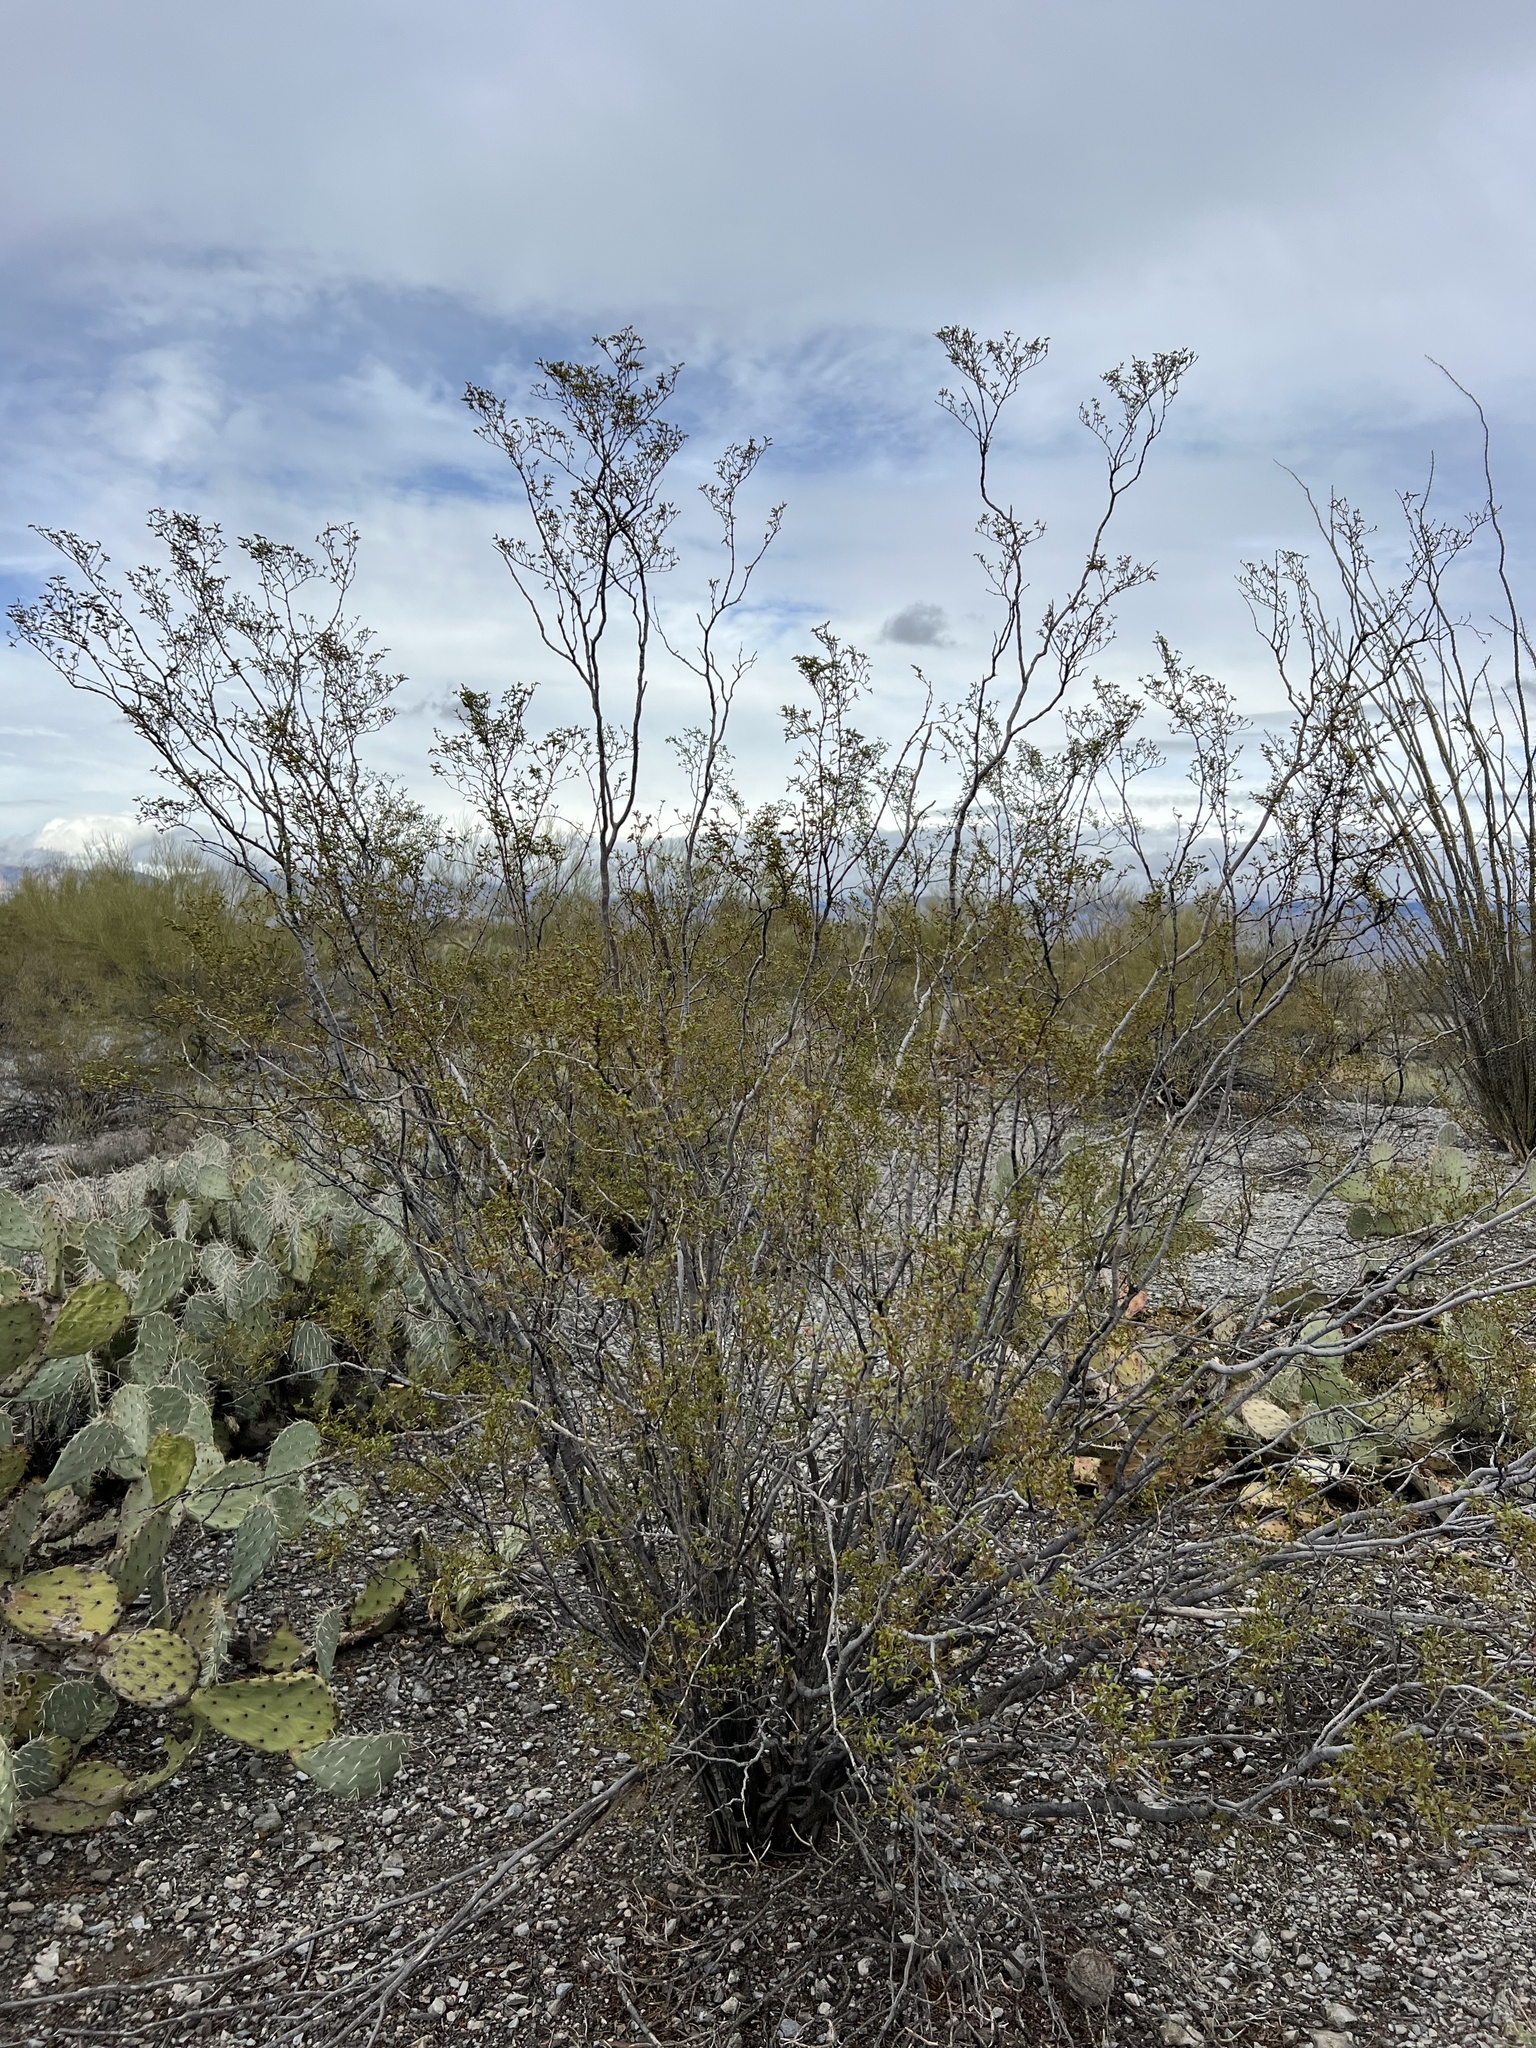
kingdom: Plantae
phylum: Tracheophyta
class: Magnoliopsida
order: Zygophyllales
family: Zygophyllaceae
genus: Larrea
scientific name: Larrea tridentata
